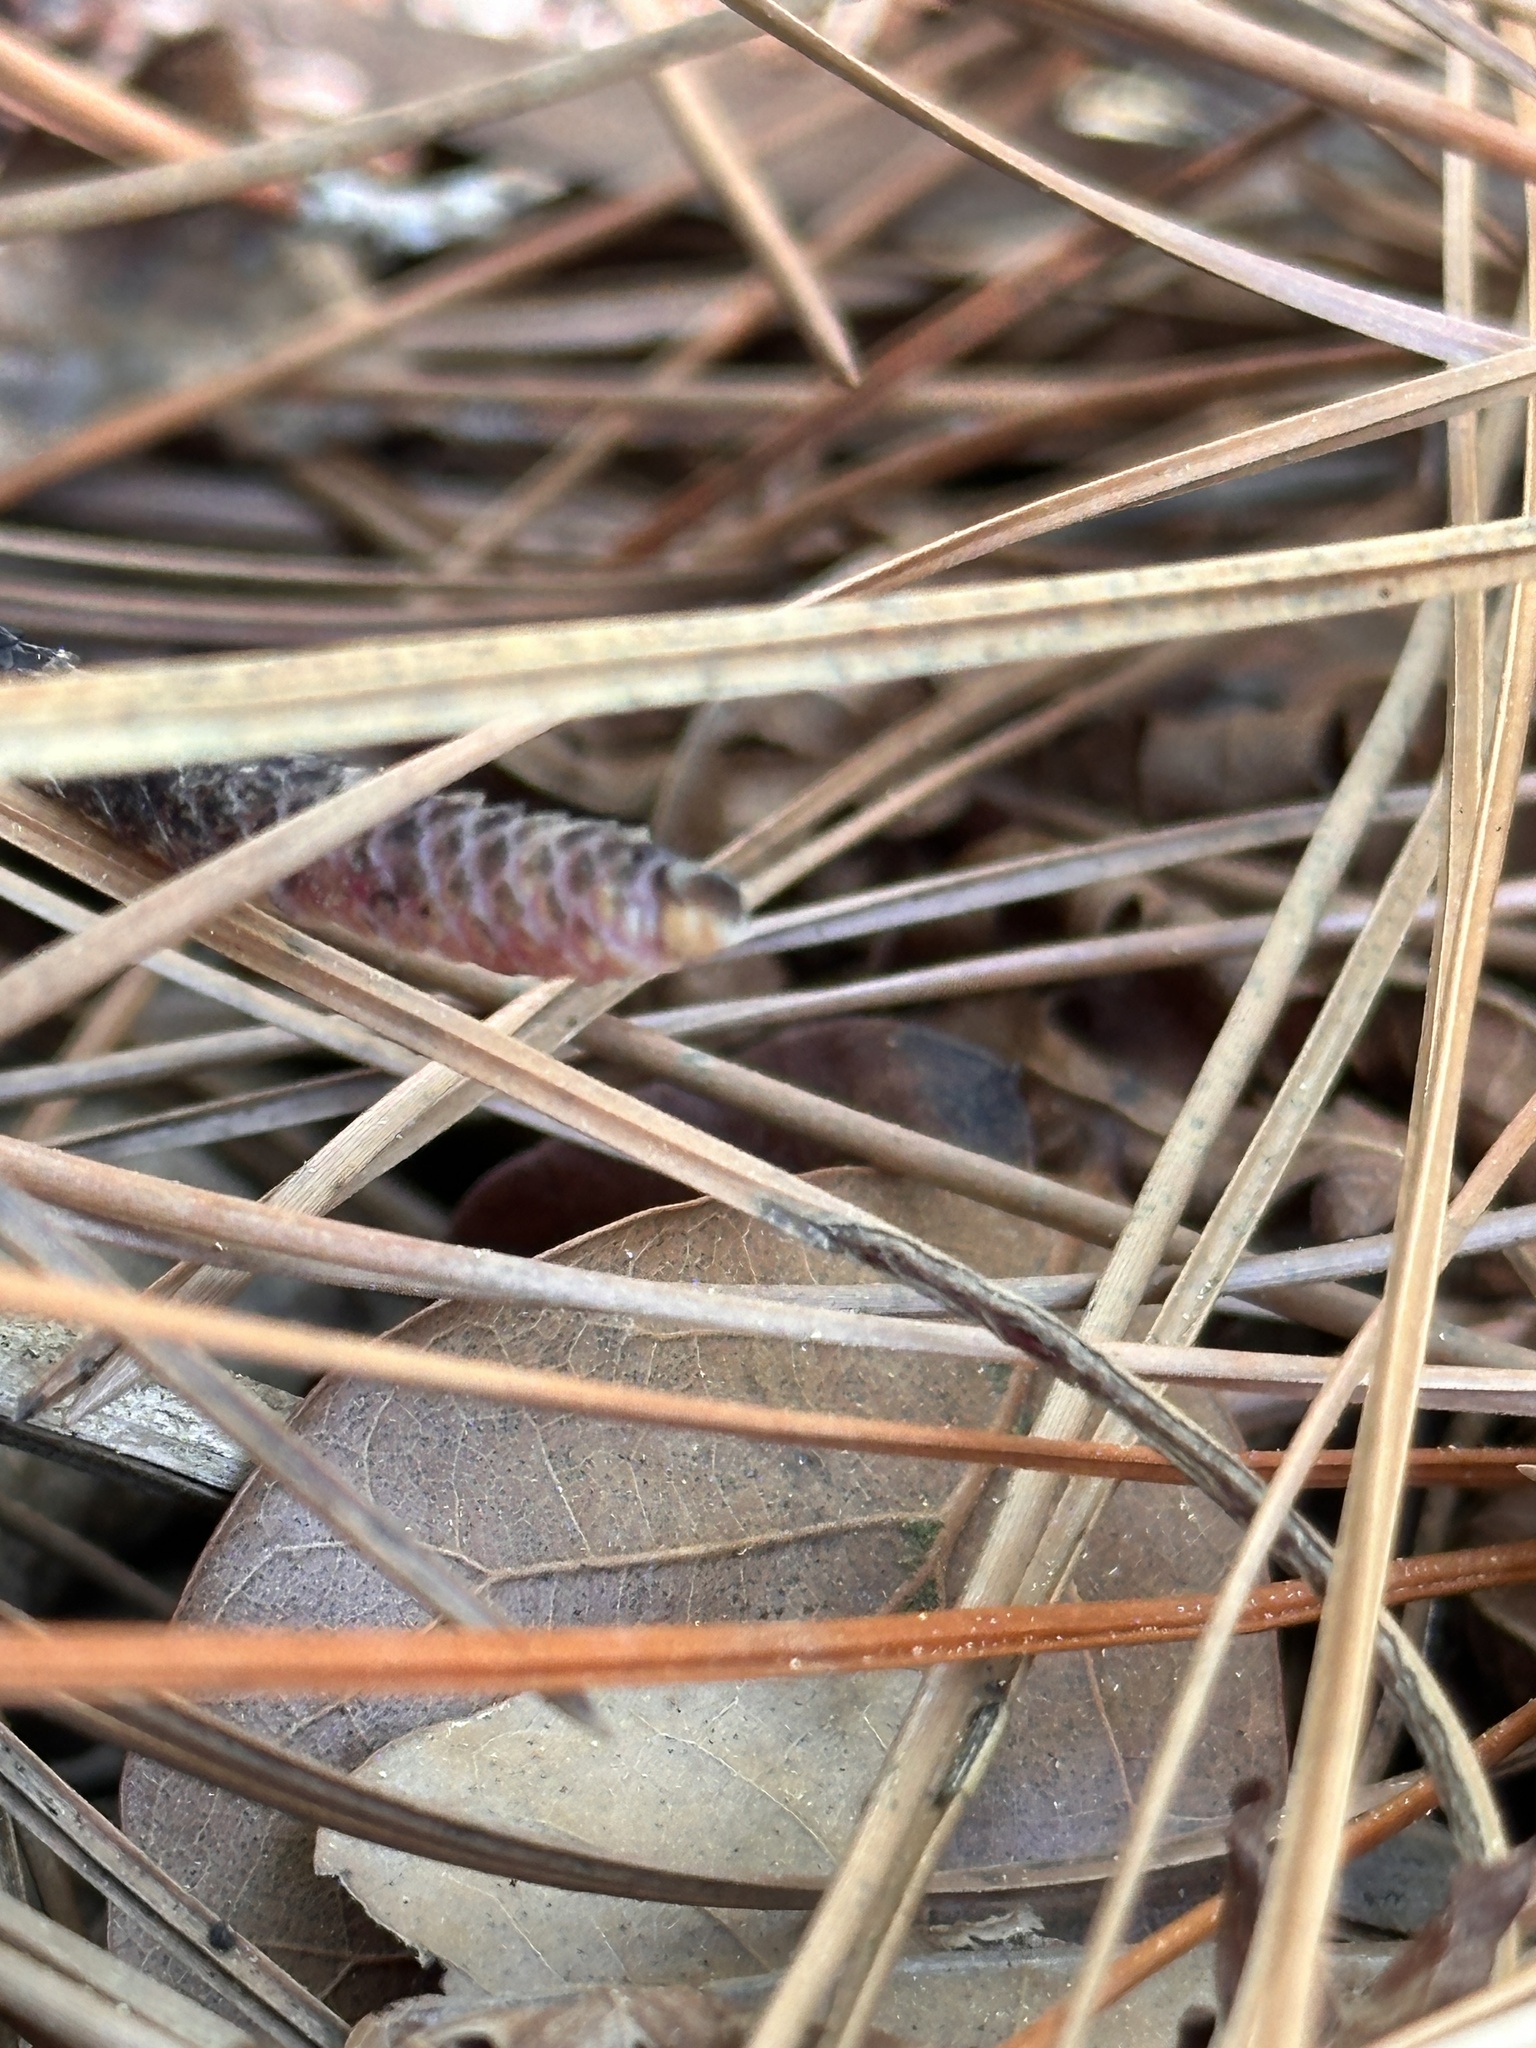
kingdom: Animalia
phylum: Chordata
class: Squamata
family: Viperidae
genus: Sistrurus
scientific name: Sistrurus miliarius
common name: Pygmy rattlesnake
